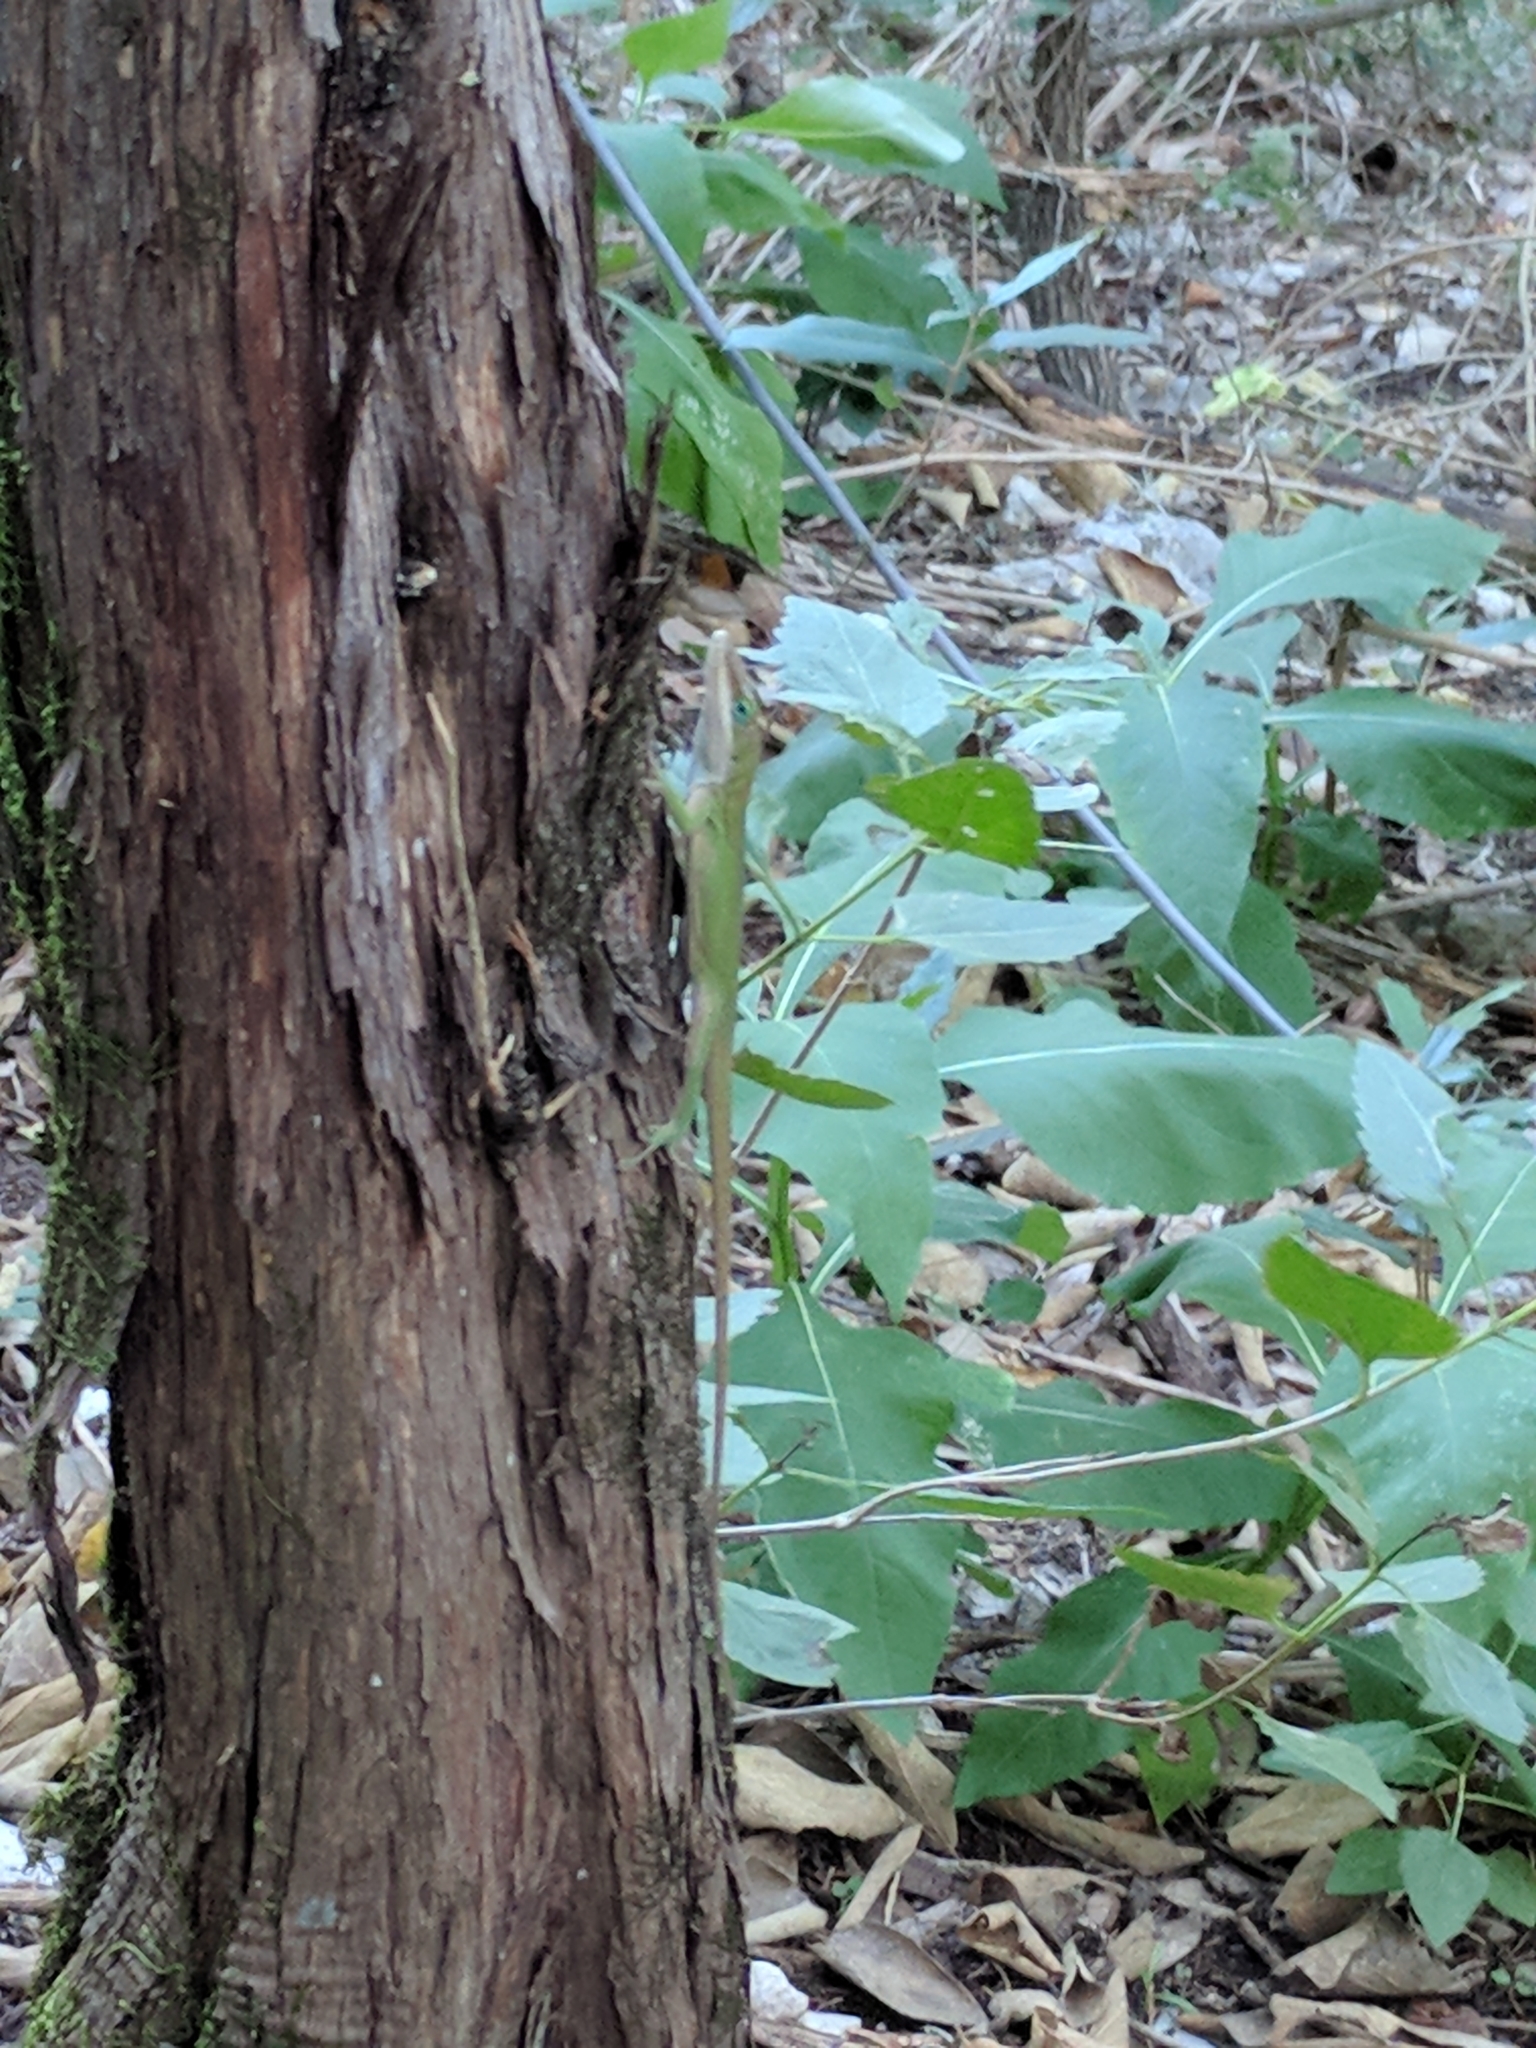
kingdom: Animalia
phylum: Chordata
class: Squamata
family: Dactyloidae
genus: Anolis
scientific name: Anolis carolinensis
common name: Green anole
